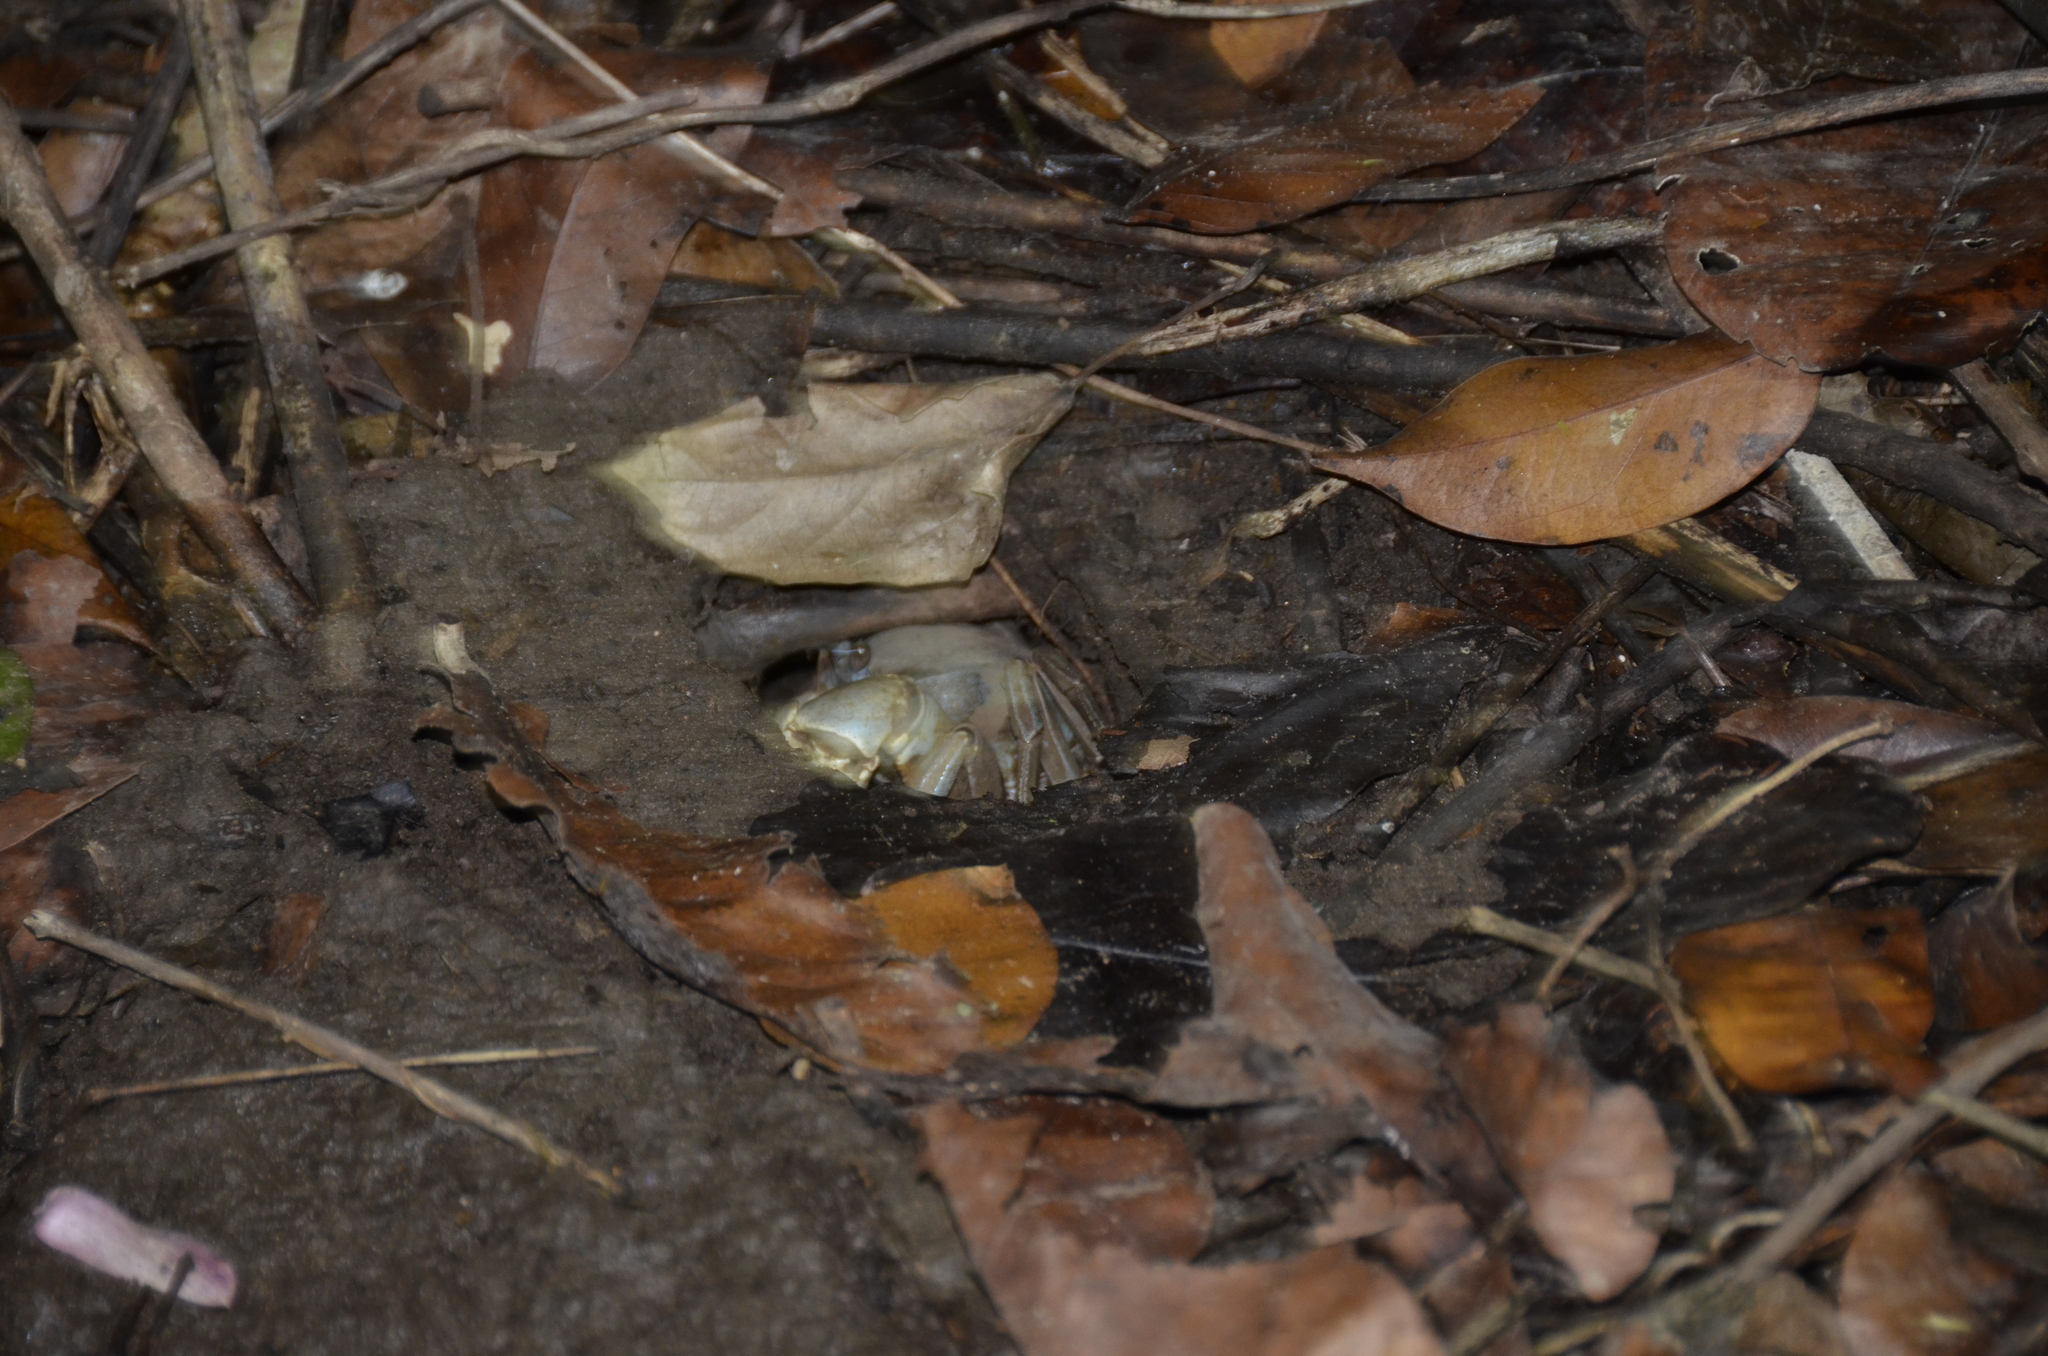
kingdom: Animalia
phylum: Arthropoda
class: Malacostraca
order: Decapoda
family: Gecarcinidae
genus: Cardisoma
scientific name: Cardisoma guanhumi
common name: Great land crab
